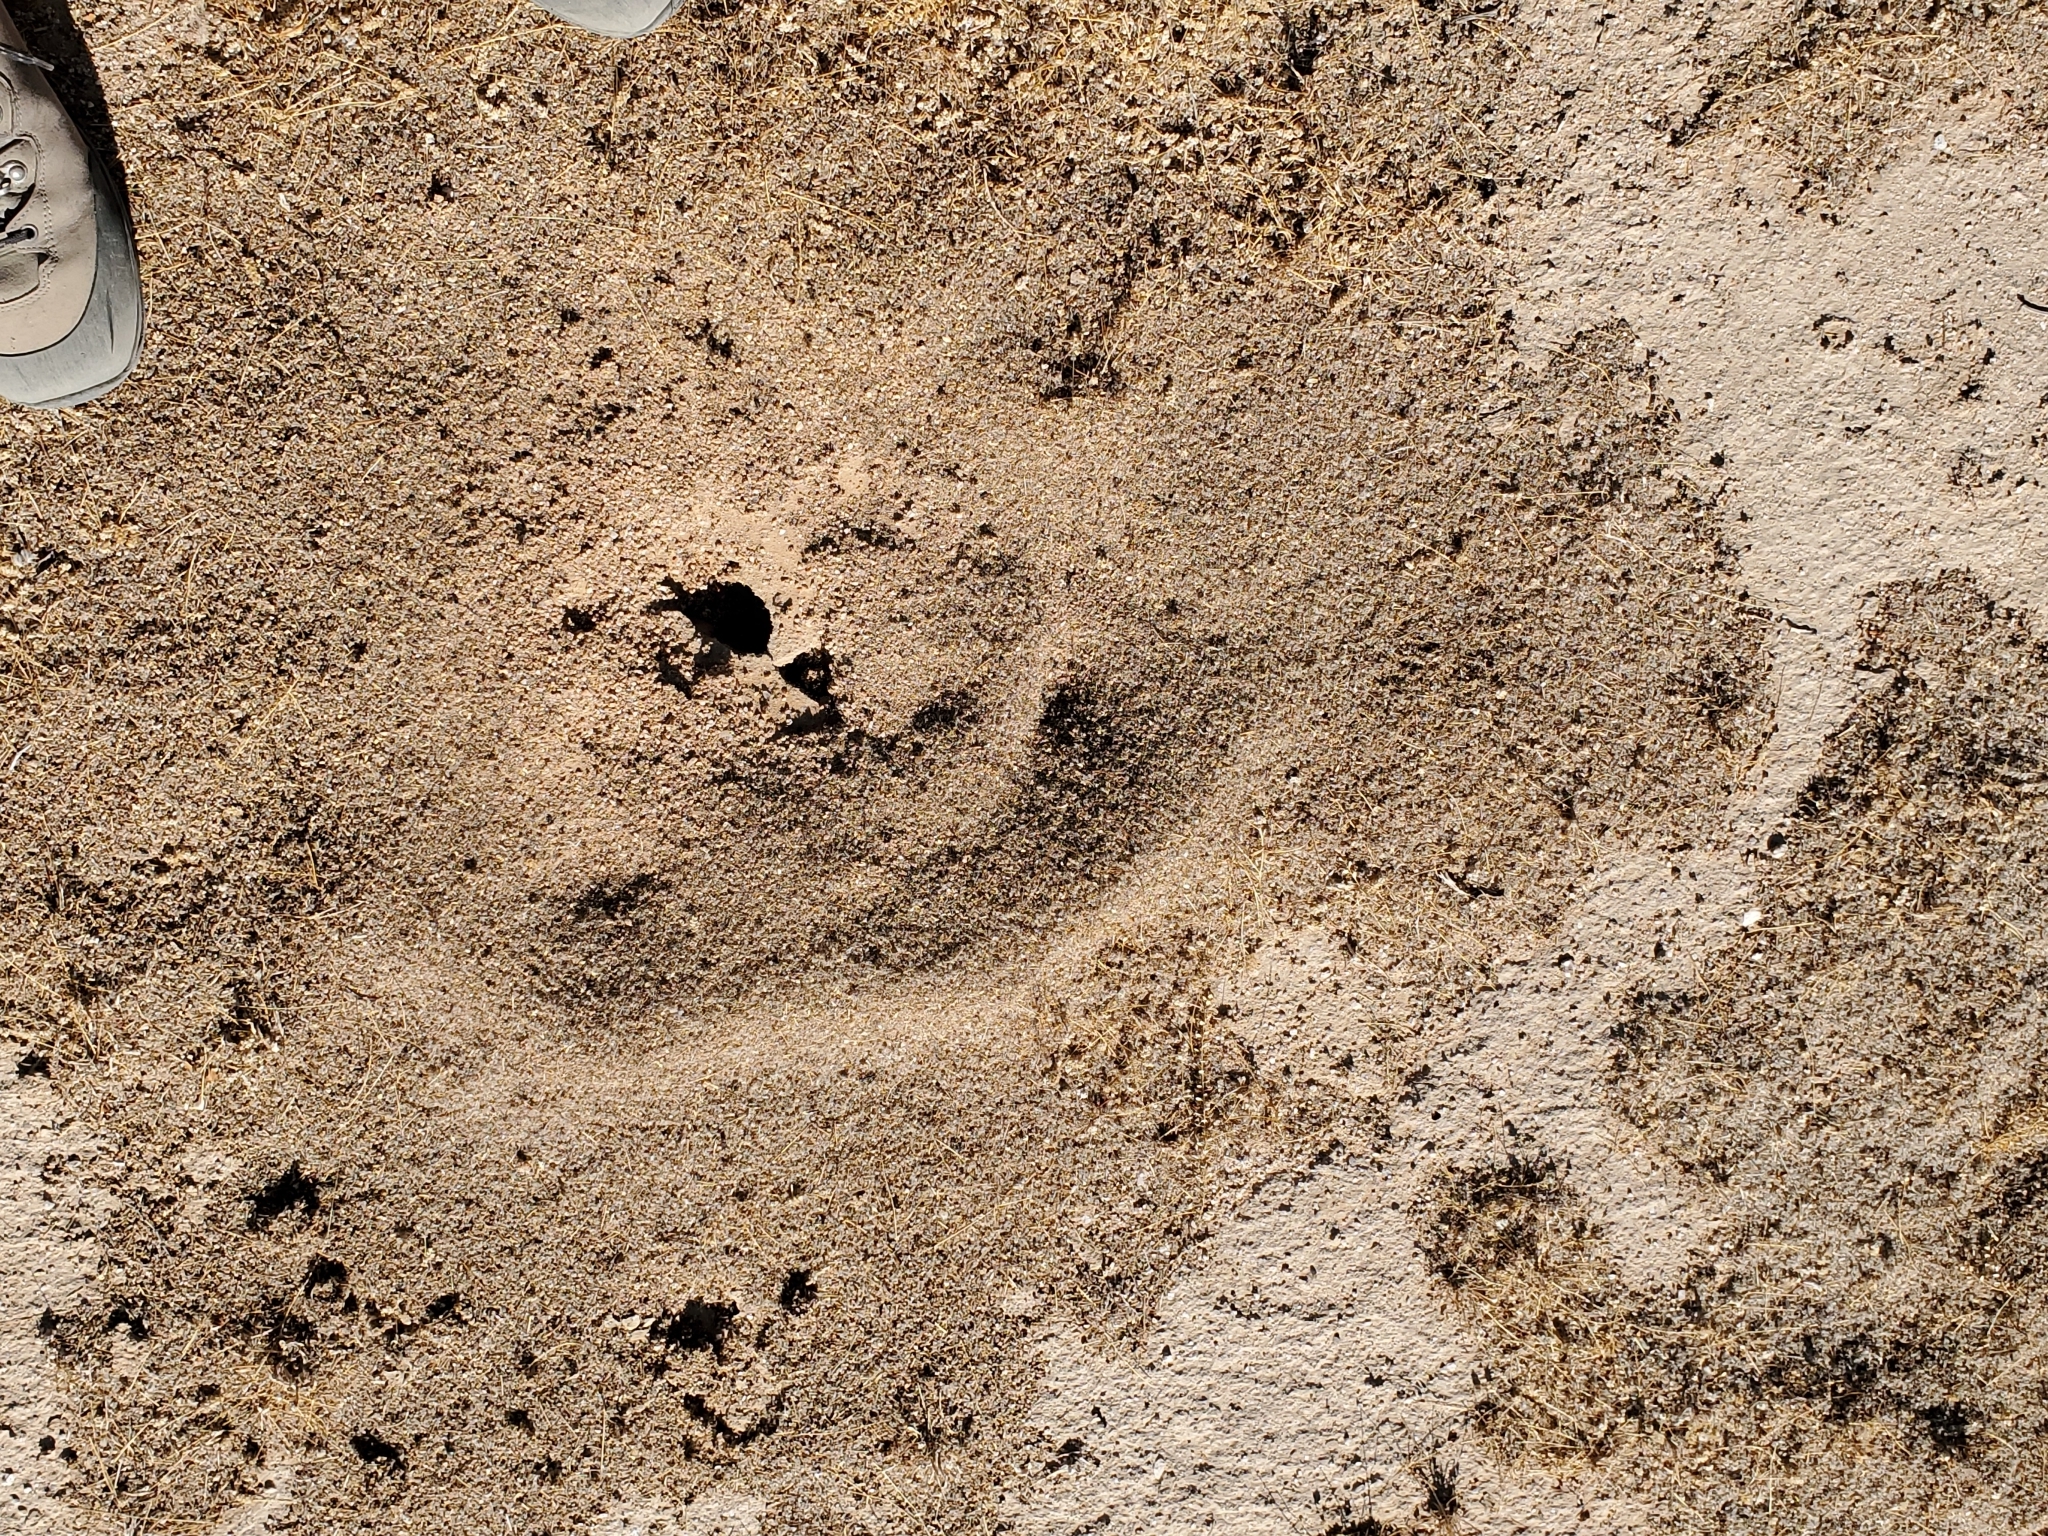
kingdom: Animalia
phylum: Arthropoda
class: Insecta
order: Hymenoptera
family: Formicidae
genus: Messor
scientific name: Messor pergandei
